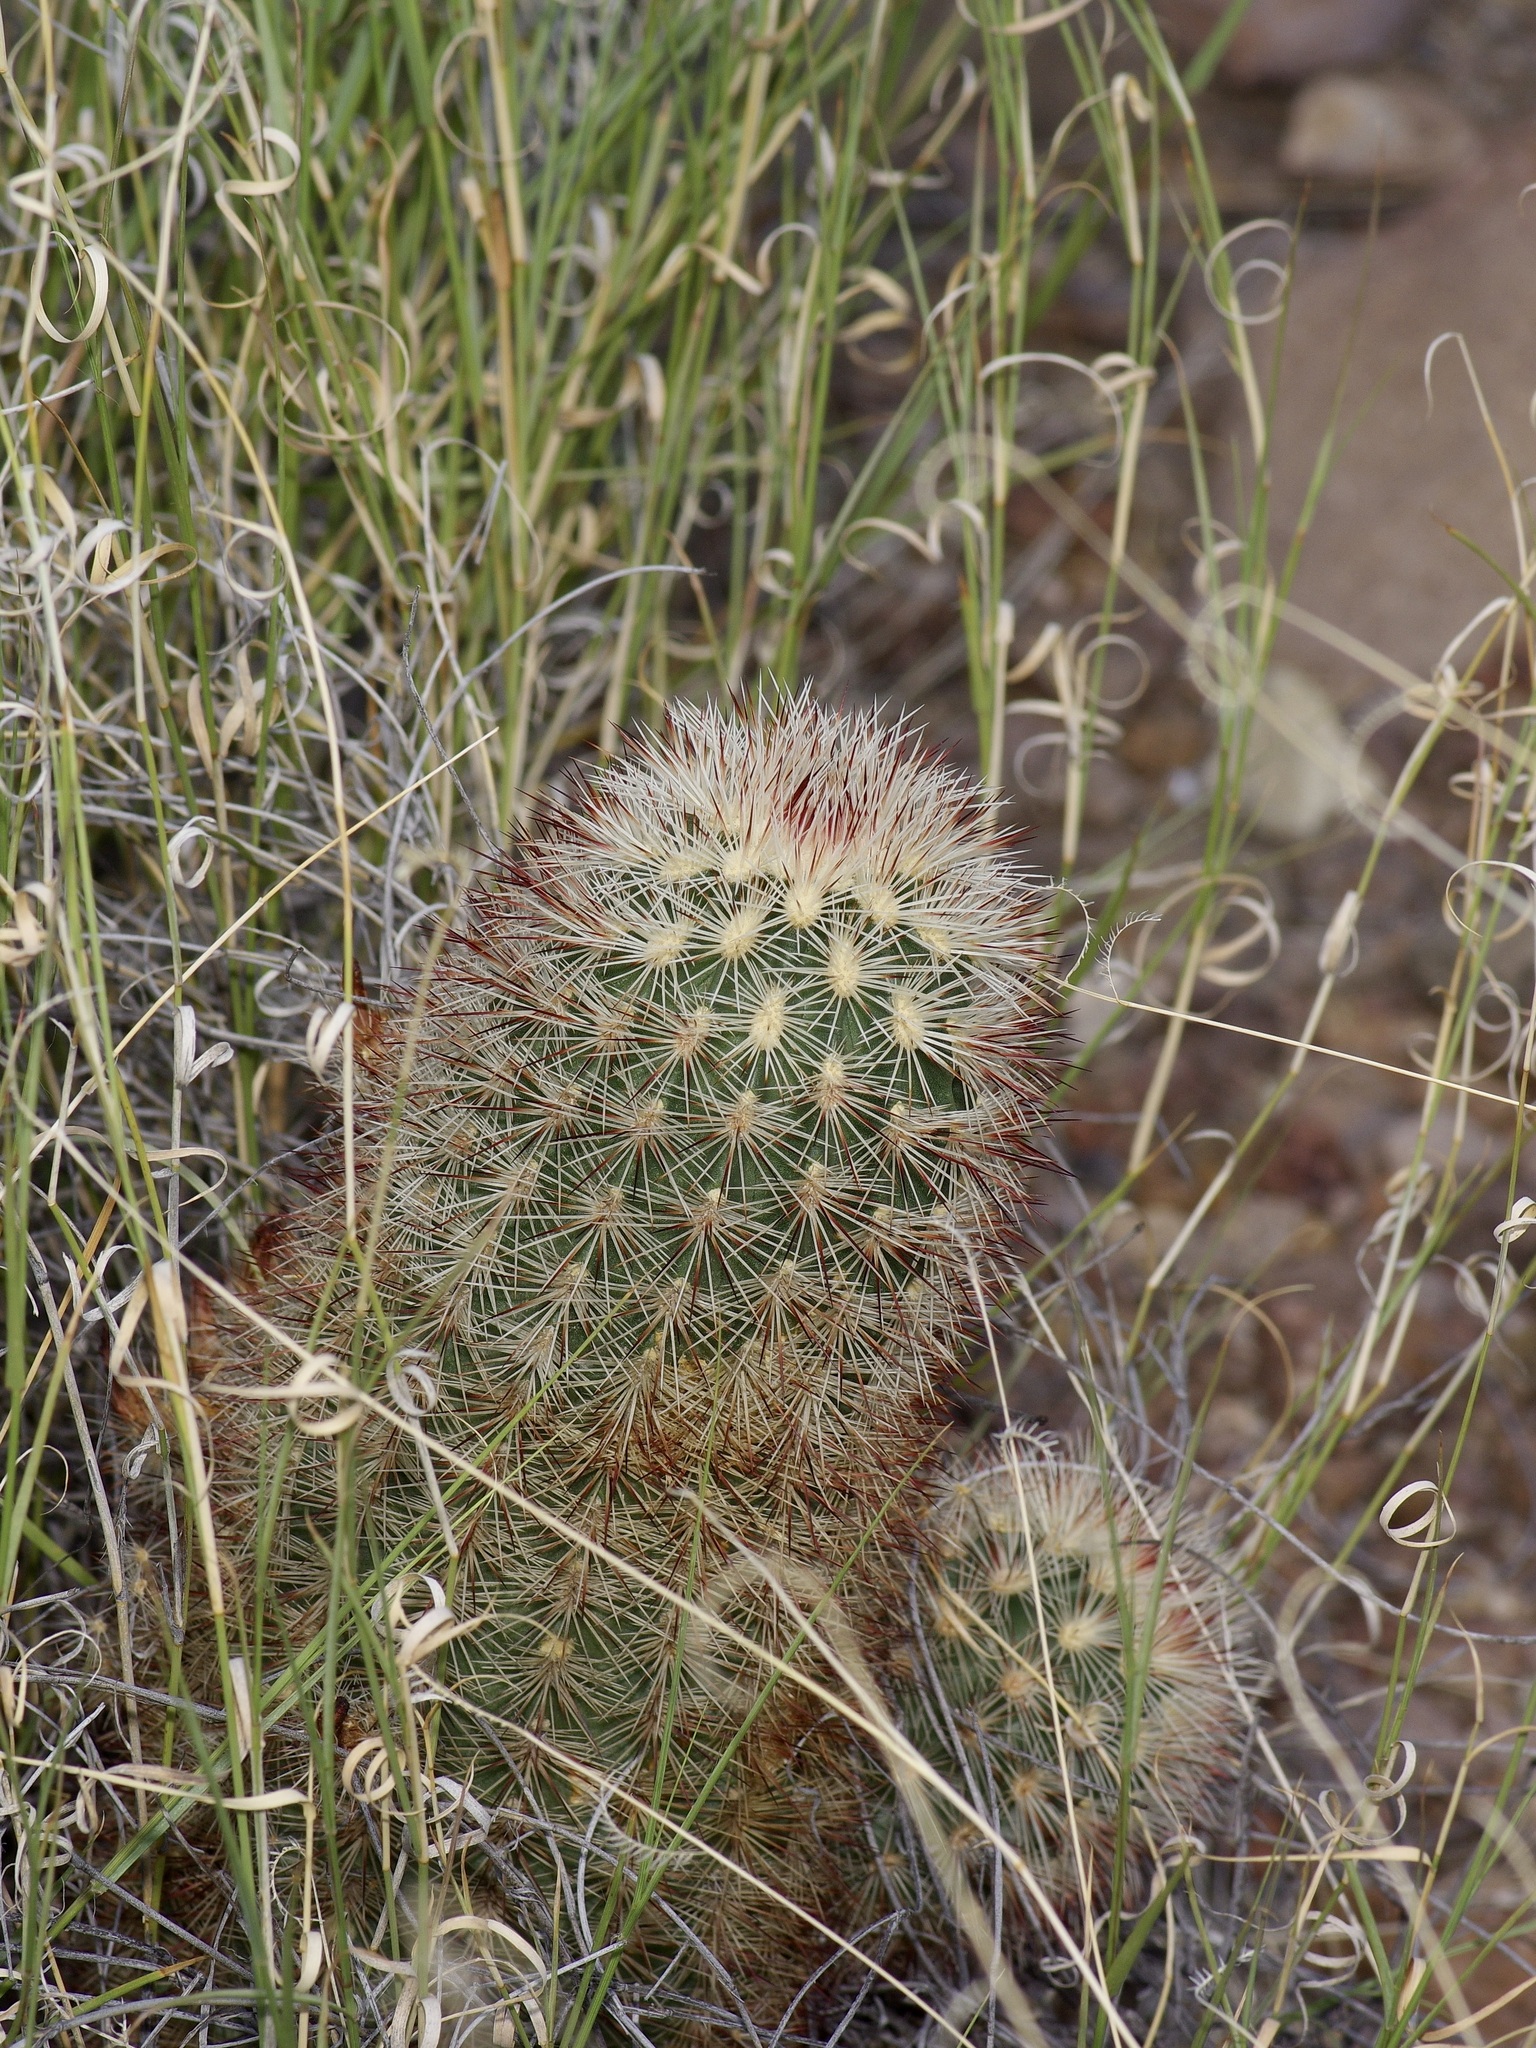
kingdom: Plantae
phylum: Tracheophyta
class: Magnoliopsida
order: Caryophyllales
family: Cactaceae
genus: Echinocereus
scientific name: Echinocereus russanthus
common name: Brownspine hedgehog cactus
